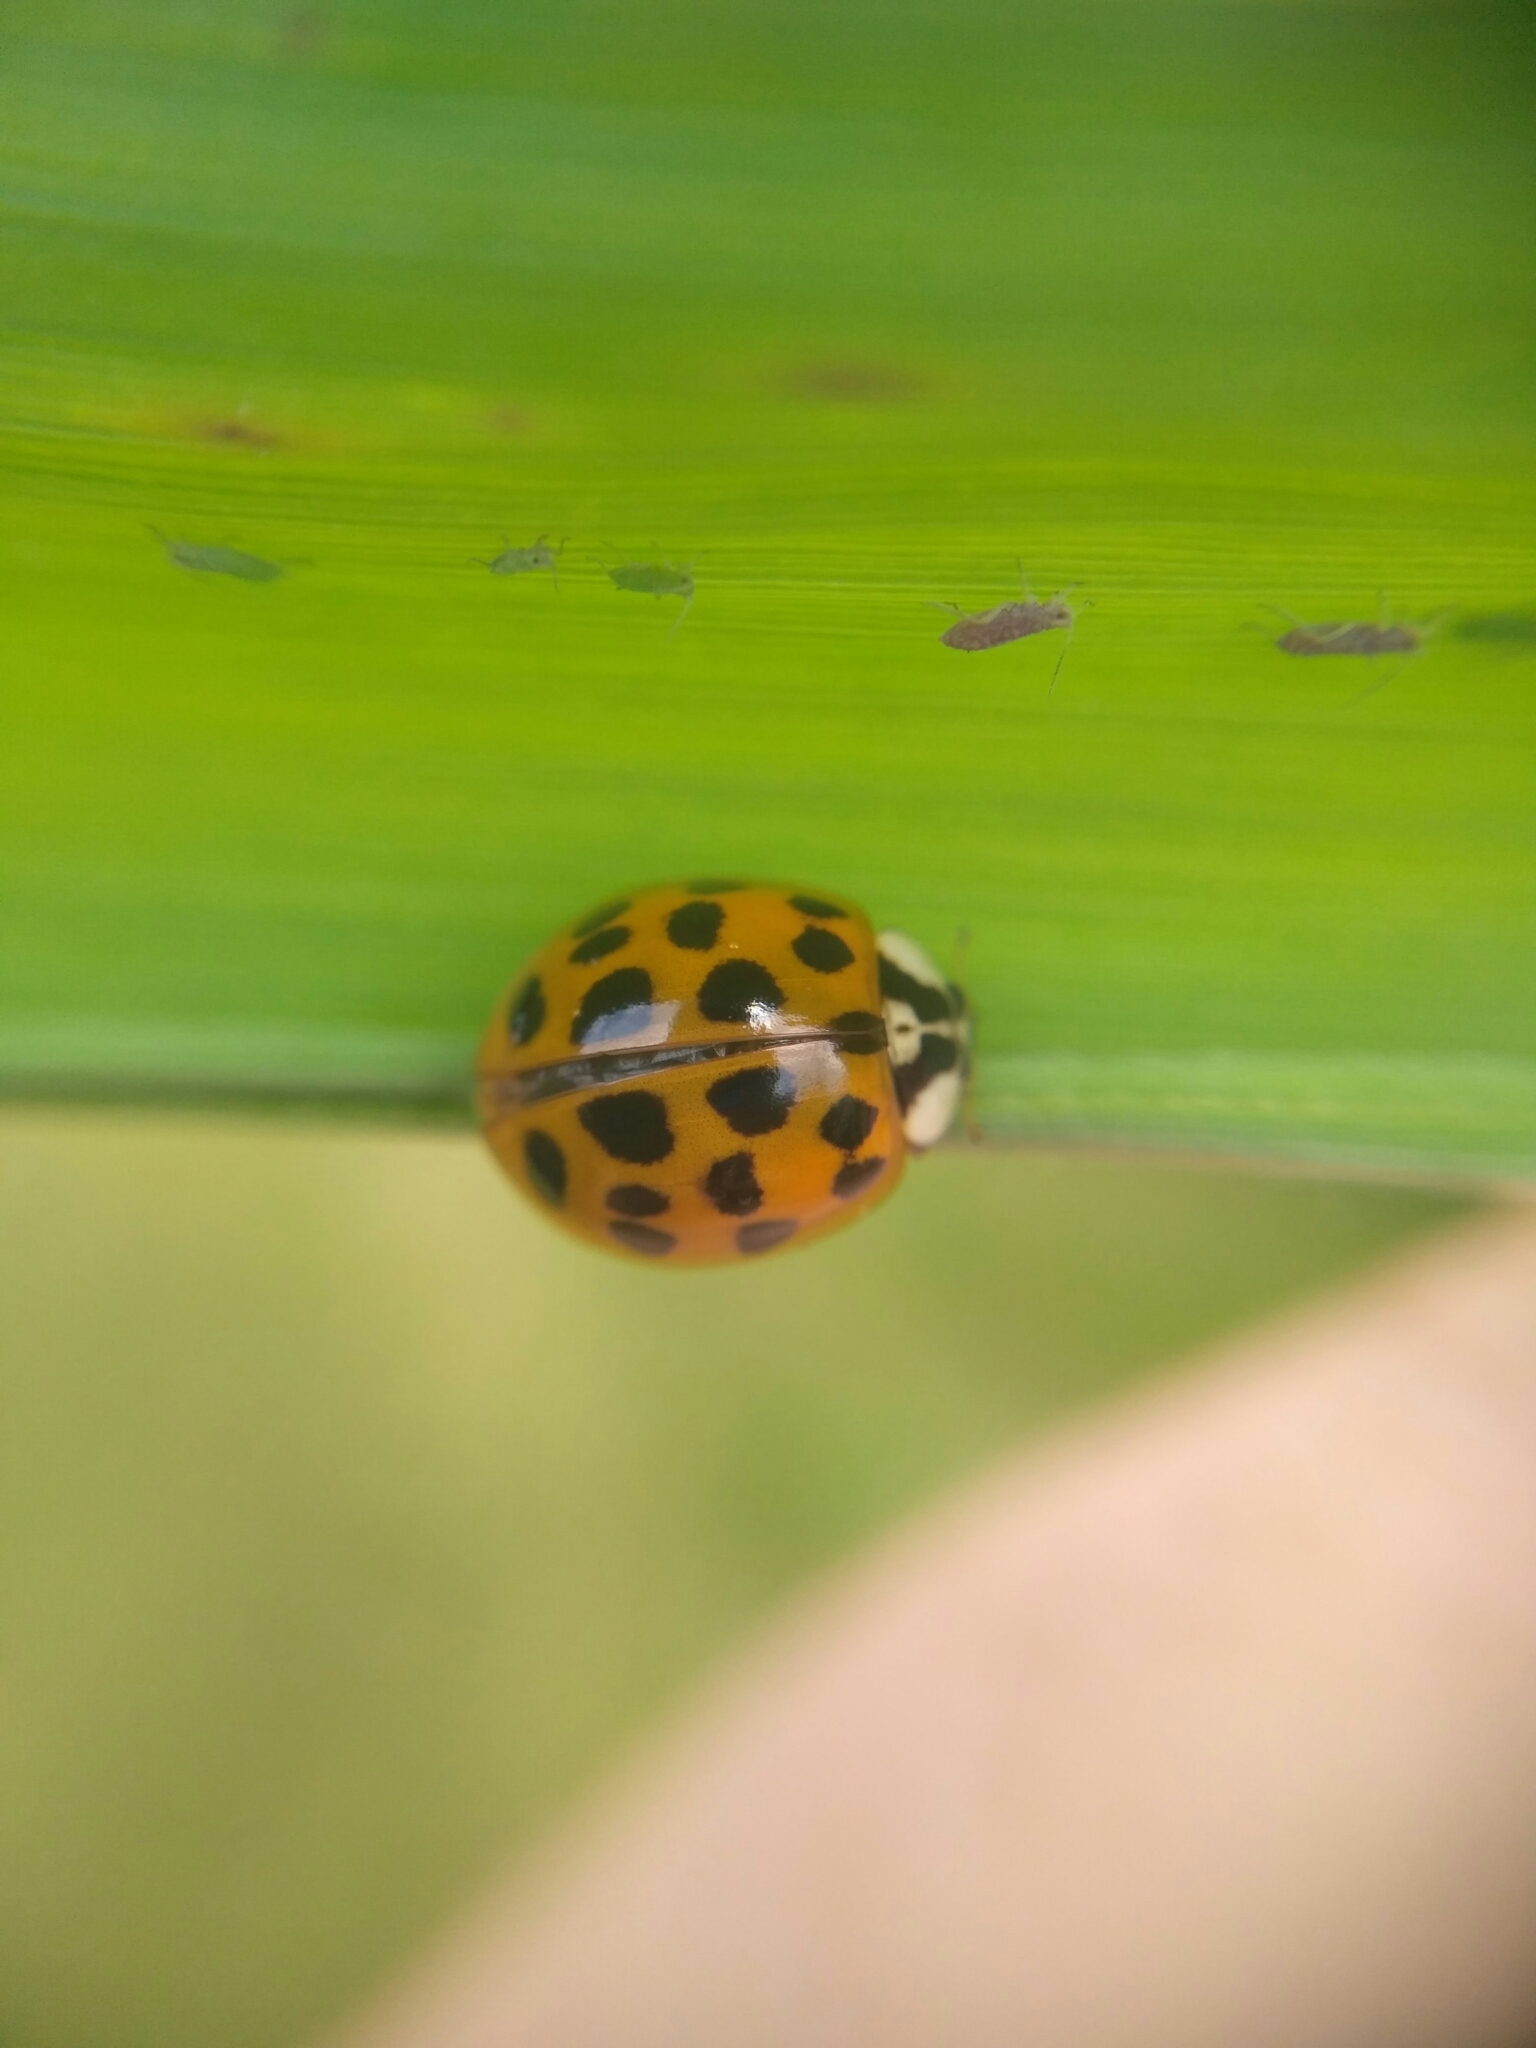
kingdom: Animalia
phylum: Arthropoda
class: Insecta
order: Coleoptera
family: Coccinellidae
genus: Harmonia
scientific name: Harmonia axyridis
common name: Harlequin ladybird
